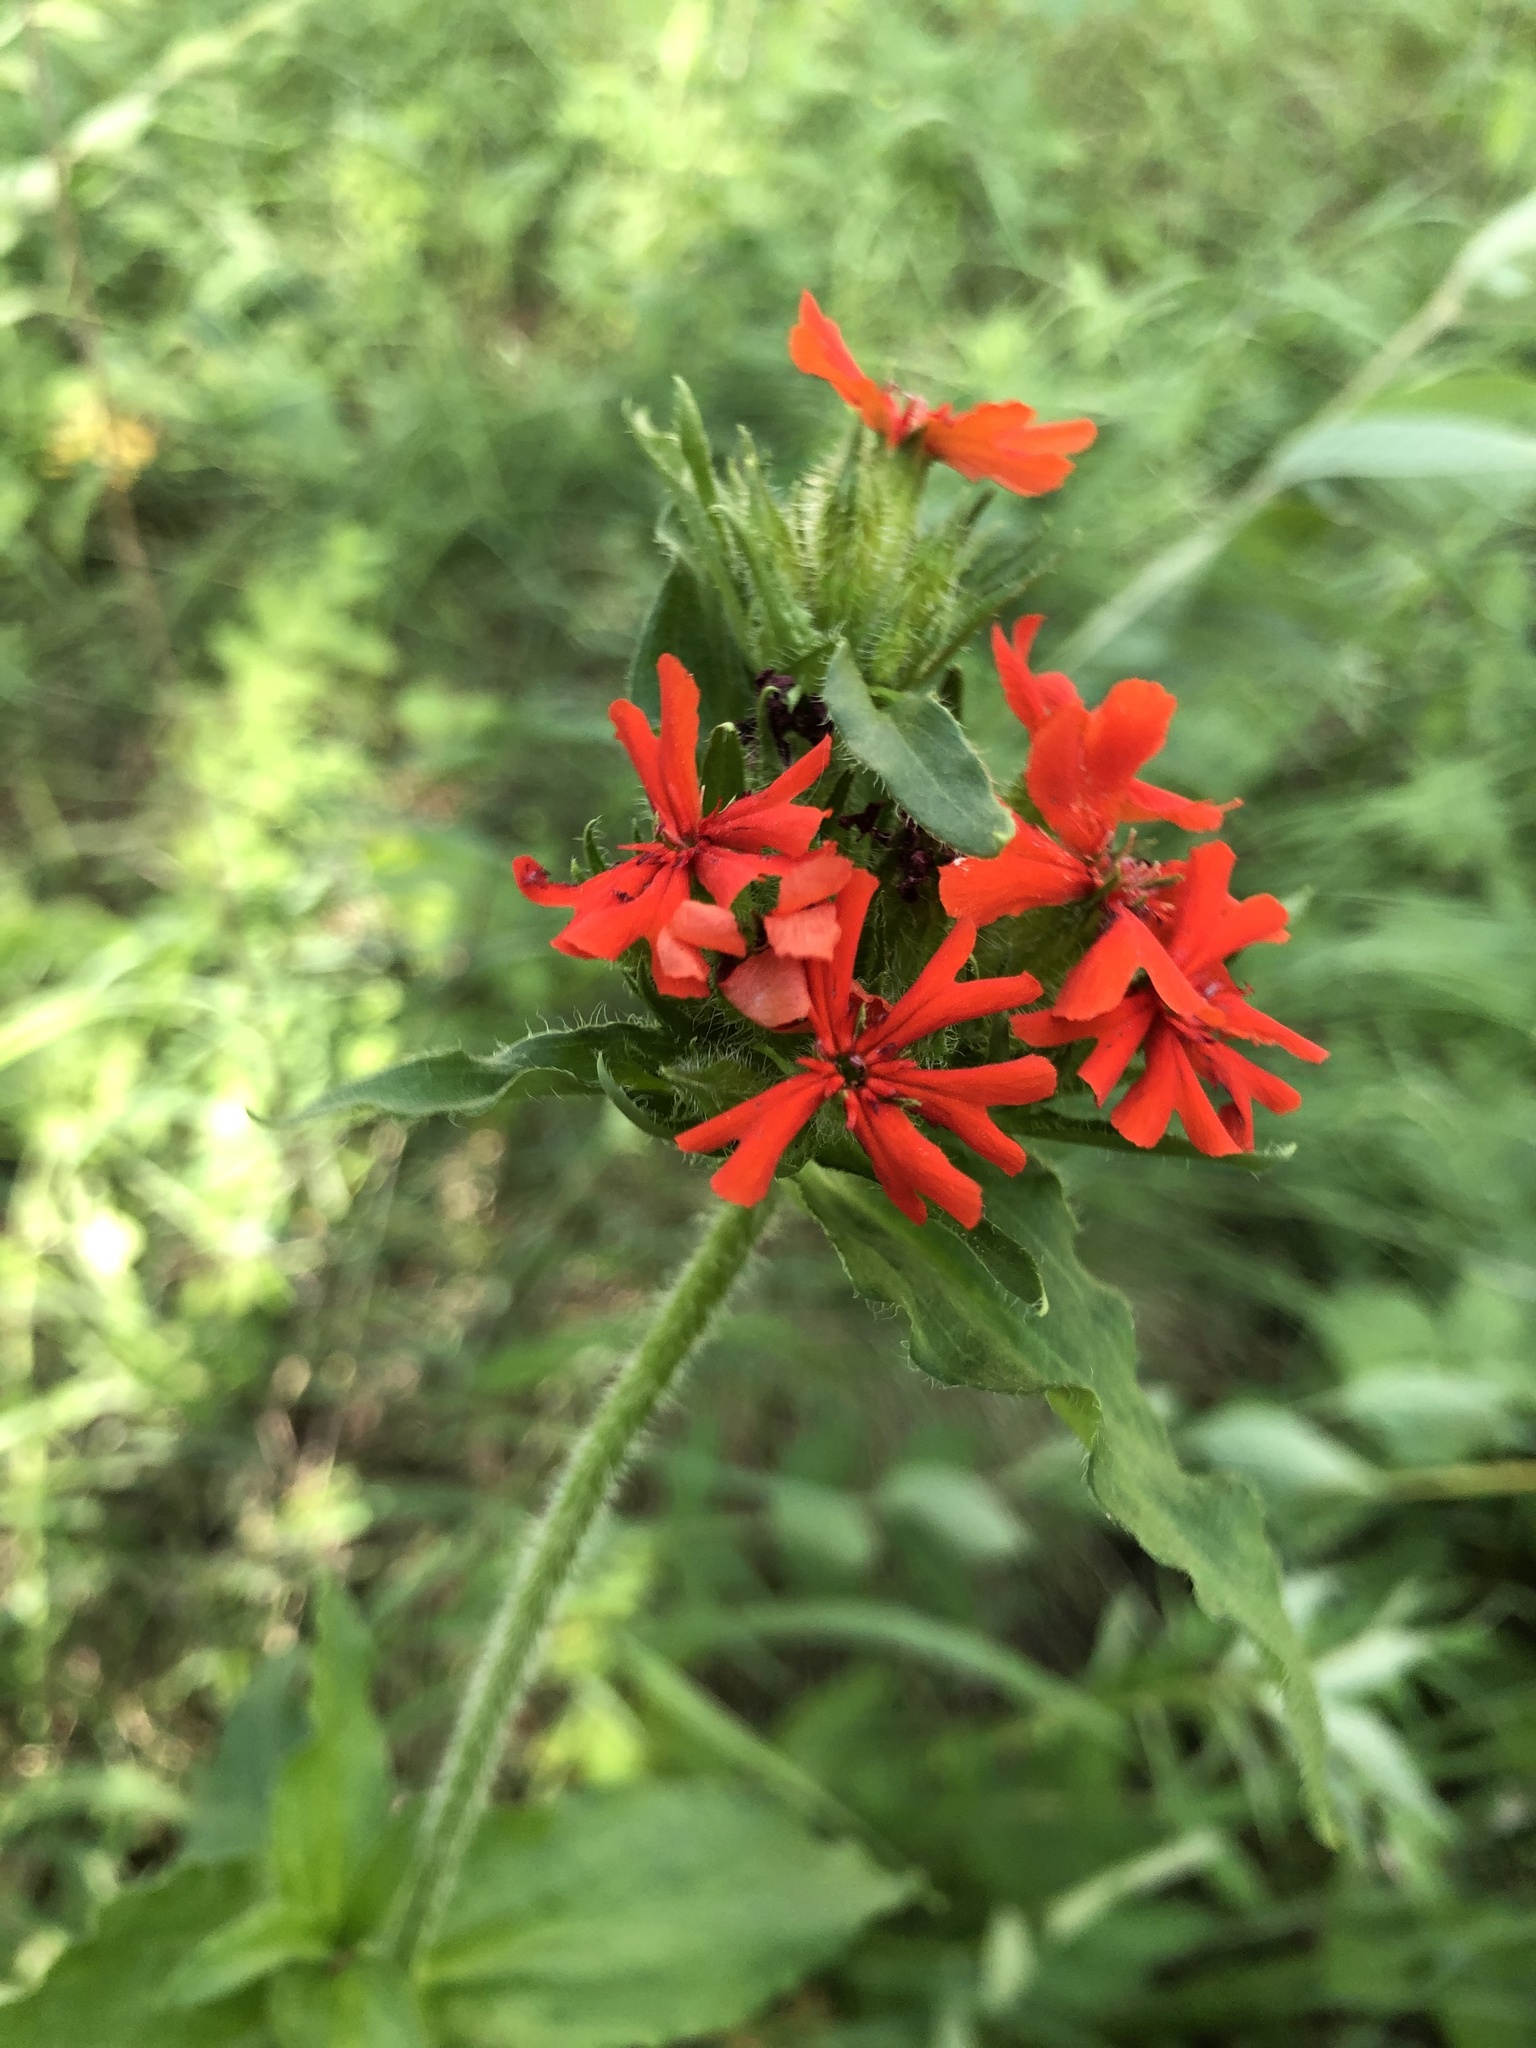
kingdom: Plantae
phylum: Tracheophyta
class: Magnoliopsida
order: Caryophyllales
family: Caryophyllaceae
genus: Silene
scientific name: Silene chalcedonica
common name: Maltese-cross
